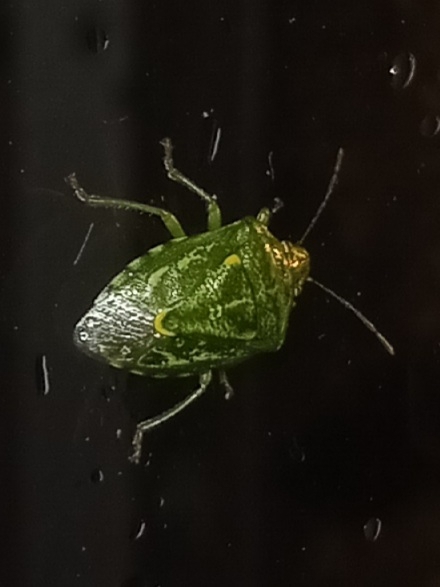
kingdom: Animalia
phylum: Arthropoda
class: Insecta
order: Hemiptera
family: Pentatomidae
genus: Banasa
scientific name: Banasa euchlora
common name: Cedar berry bug
